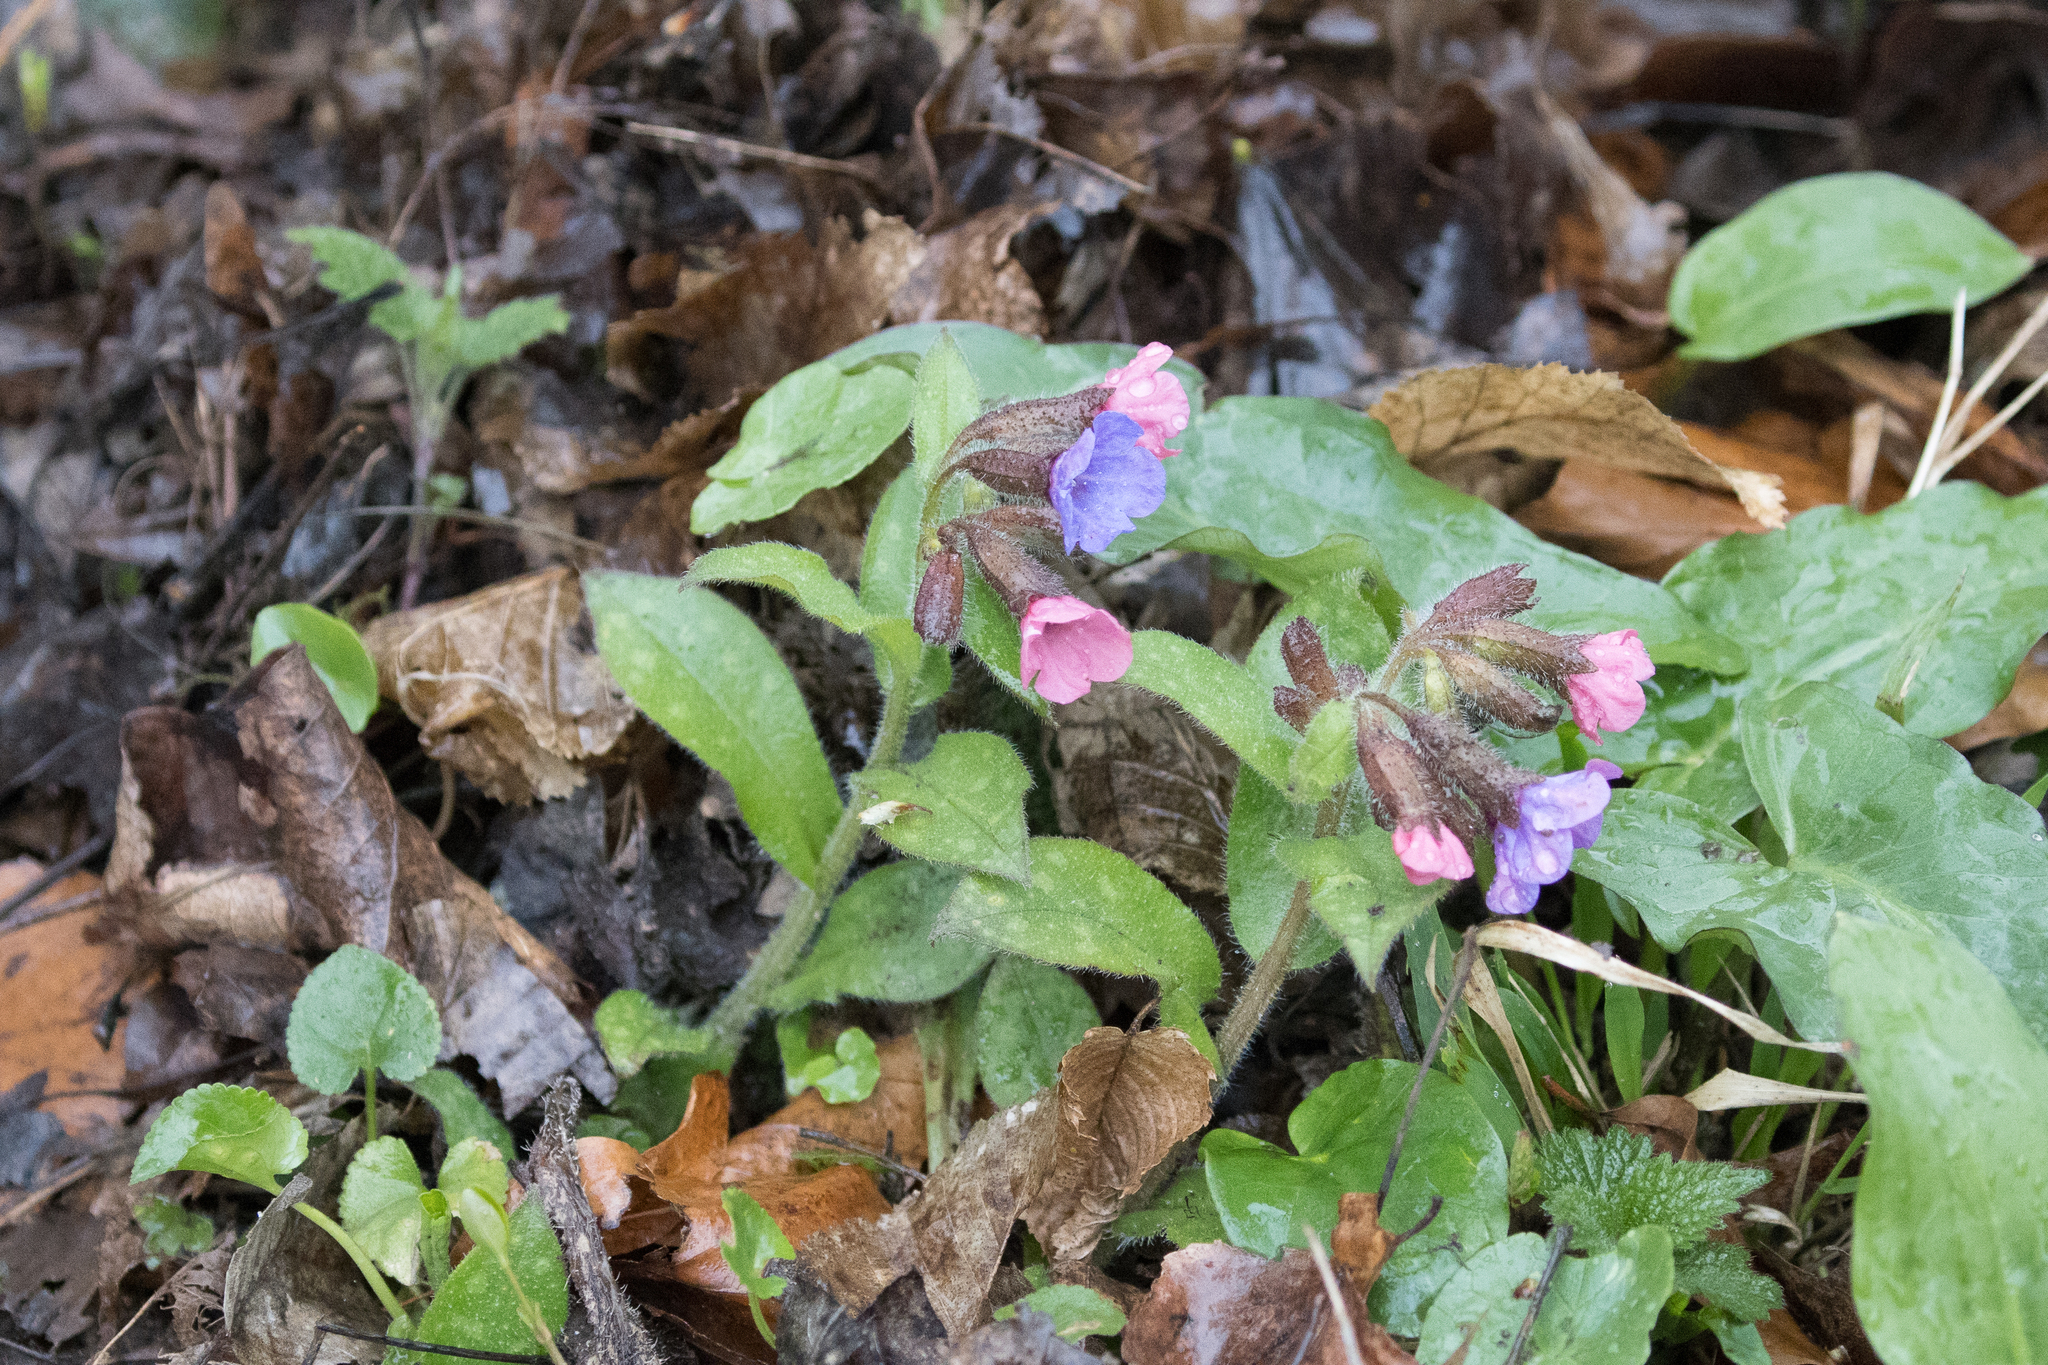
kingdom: Plantae
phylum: Tracheophyta
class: Magnoliopsida
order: Boraginales
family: Boraginaceae
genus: Pulmonaria
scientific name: Pulmonaria officinalis
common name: Lungwort
